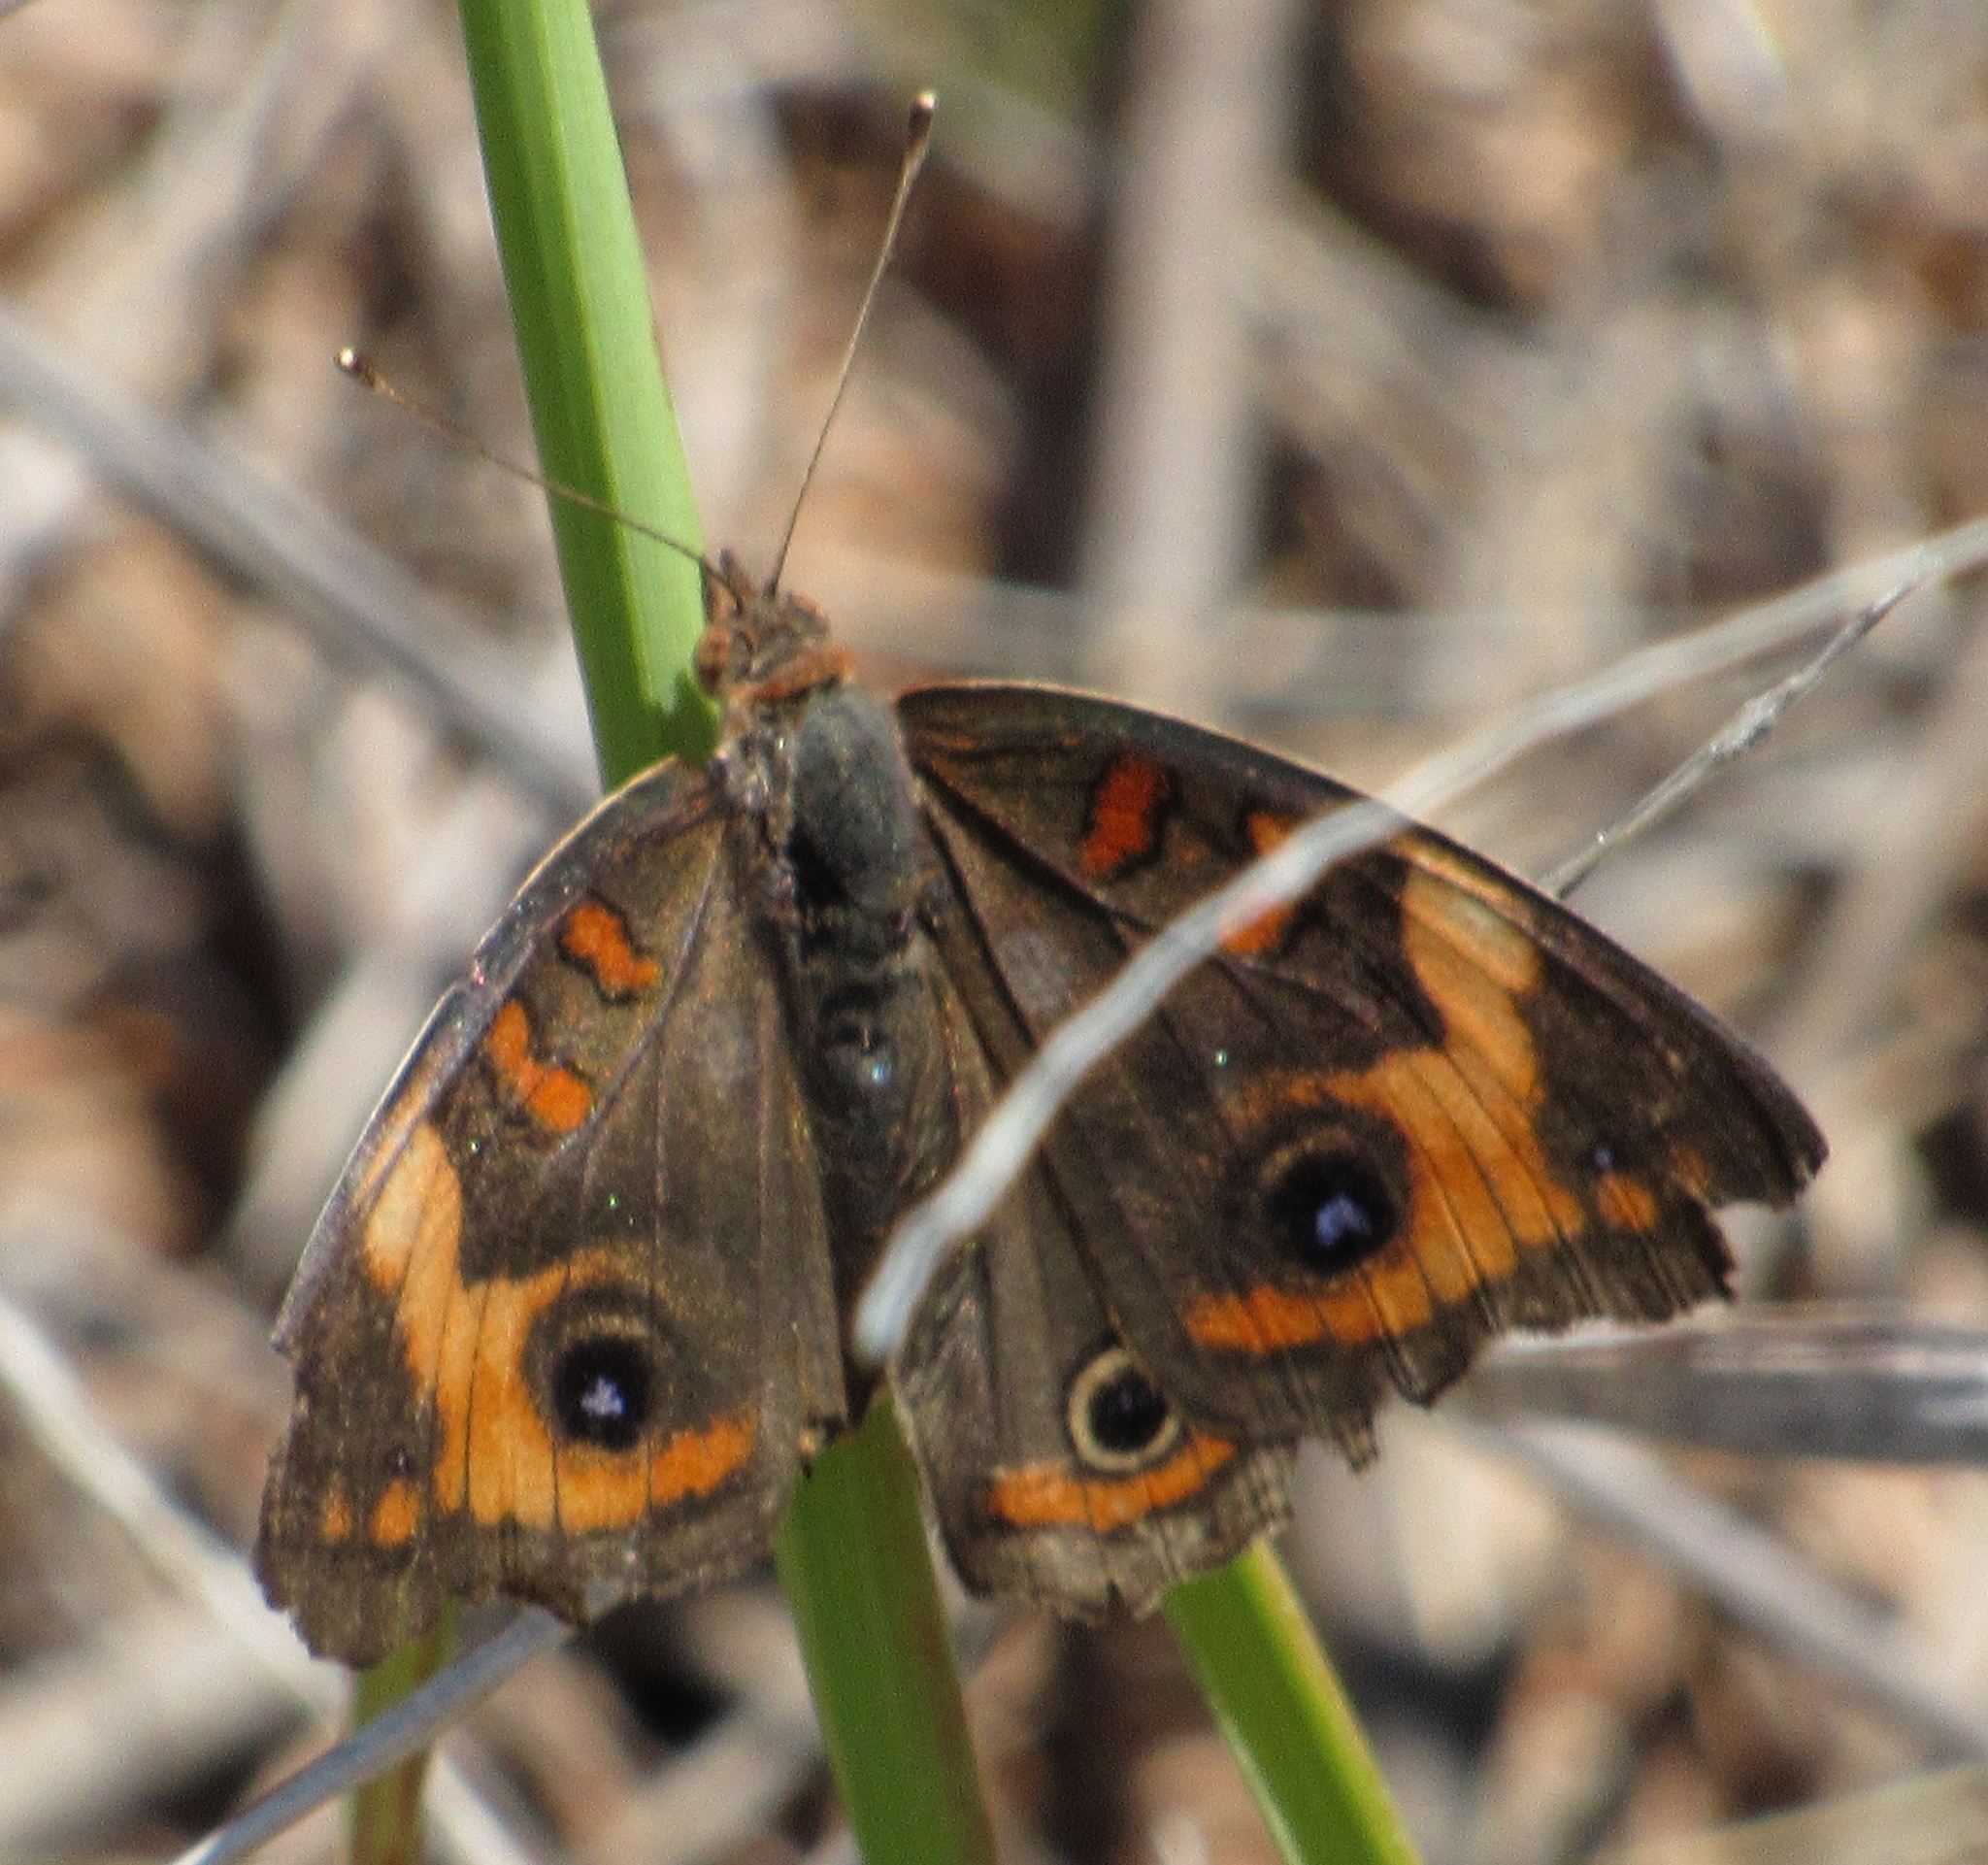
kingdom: Animalia
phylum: Arthropoda
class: Insecta
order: Lepidoptera
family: Nymphalidae
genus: Junonia
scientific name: Junonia coenia
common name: Common buckeye
